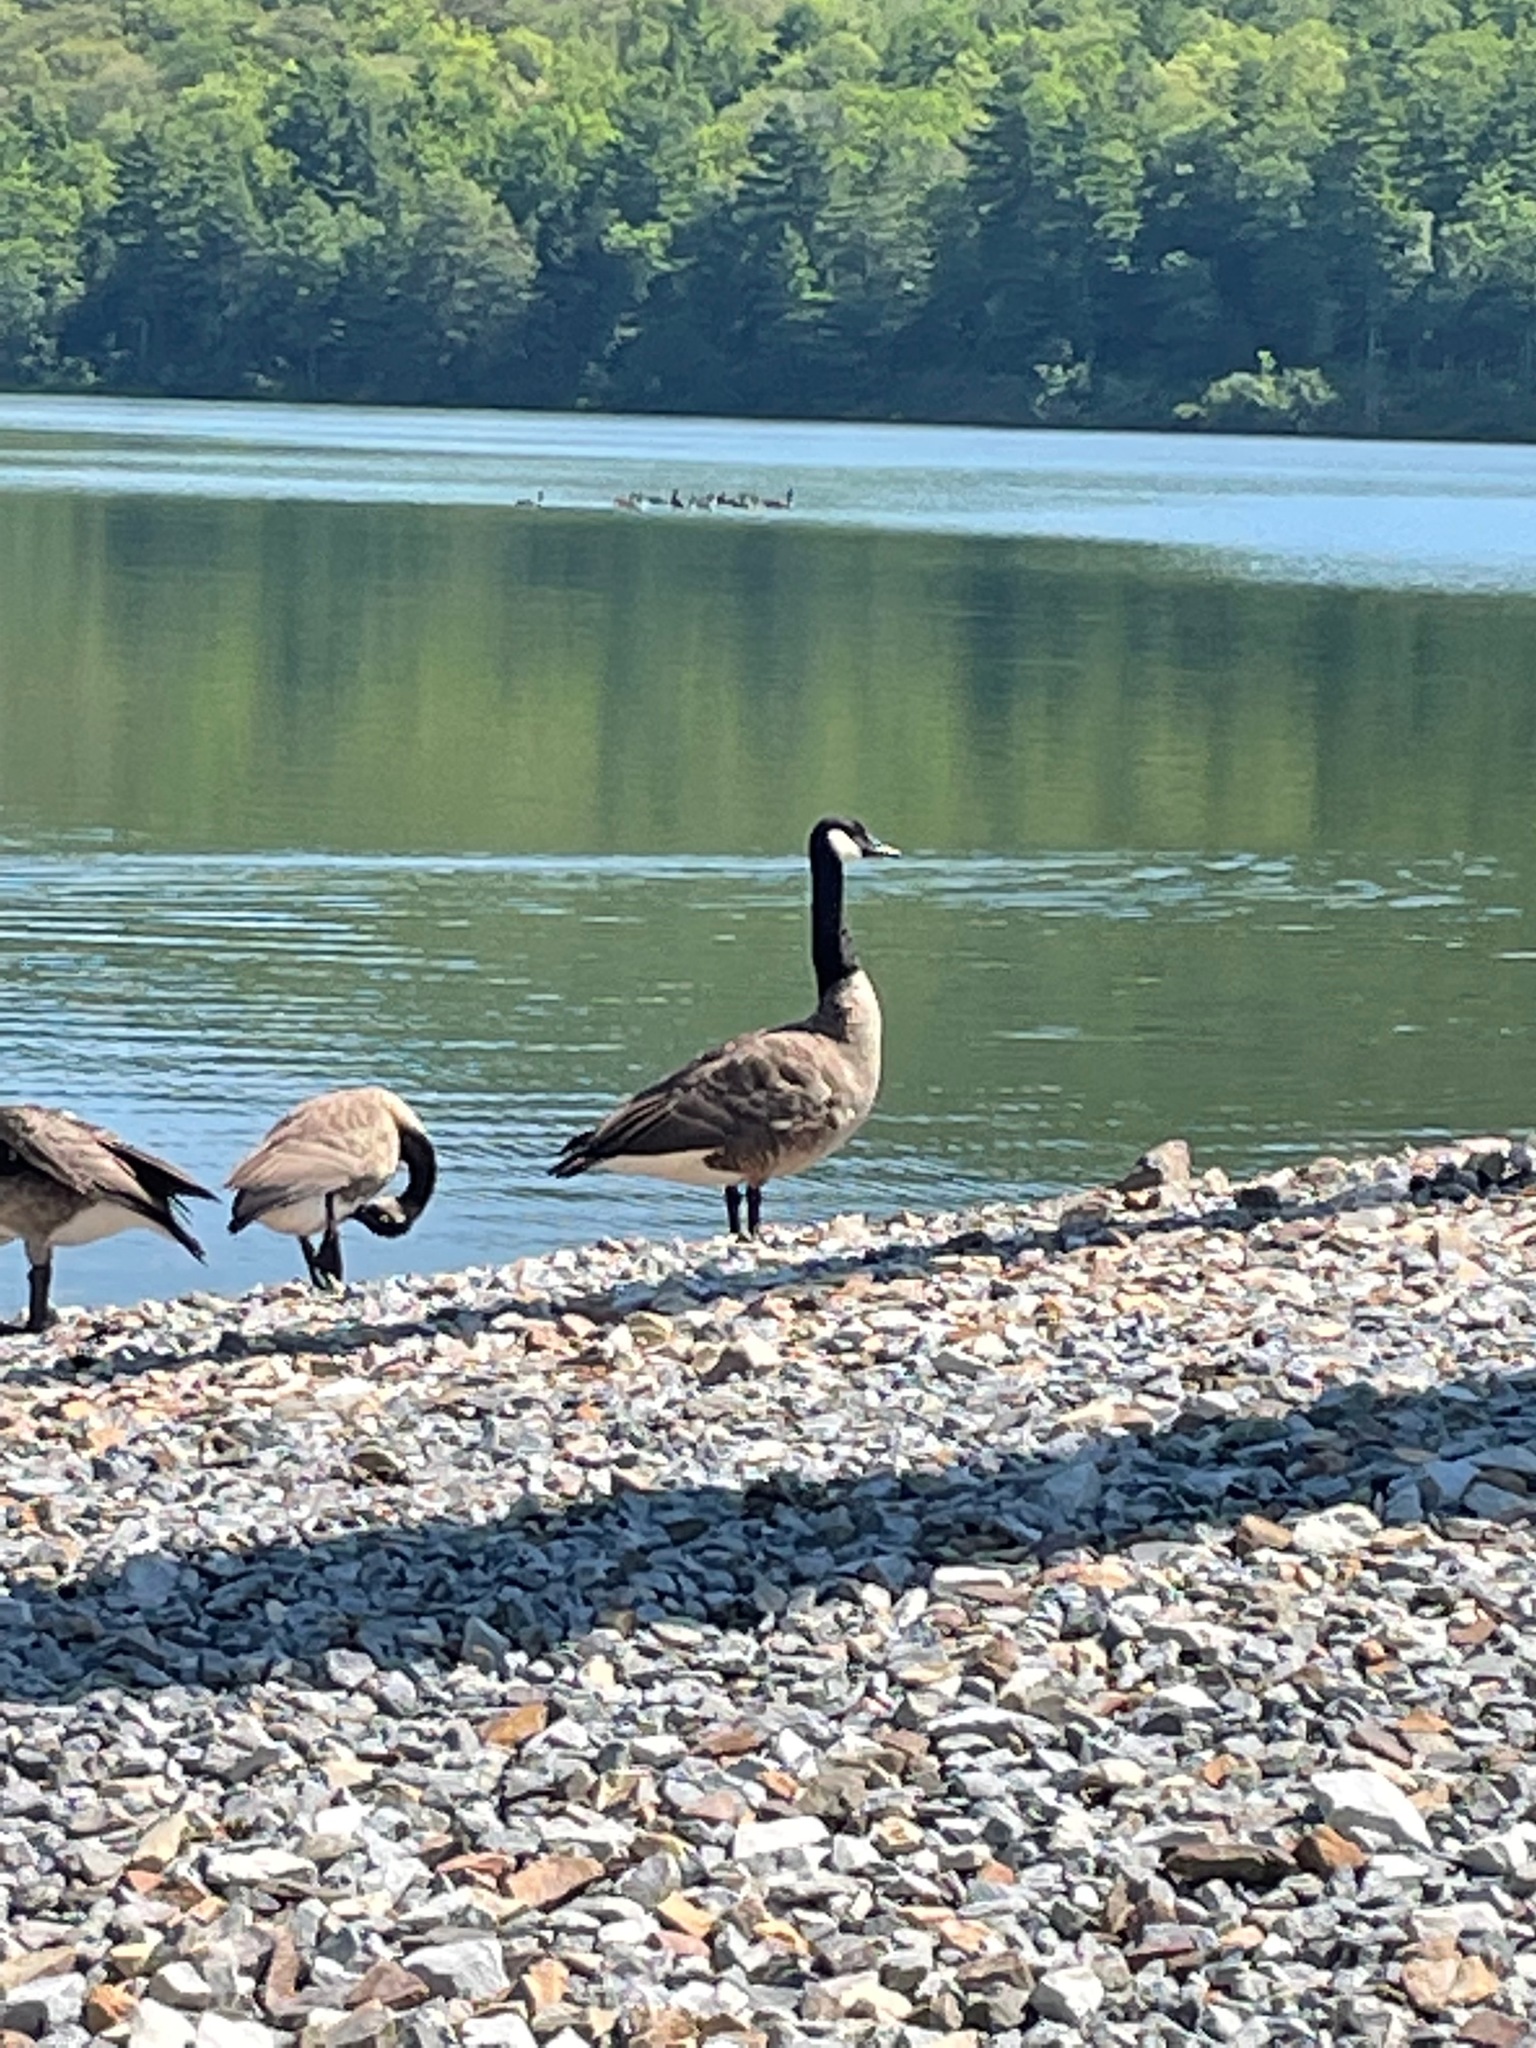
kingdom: Animalia
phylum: Chordata
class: Aves
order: Anseriformes
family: Anatidae
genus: Branta
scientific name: Branta canadensis
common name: Canada goose
